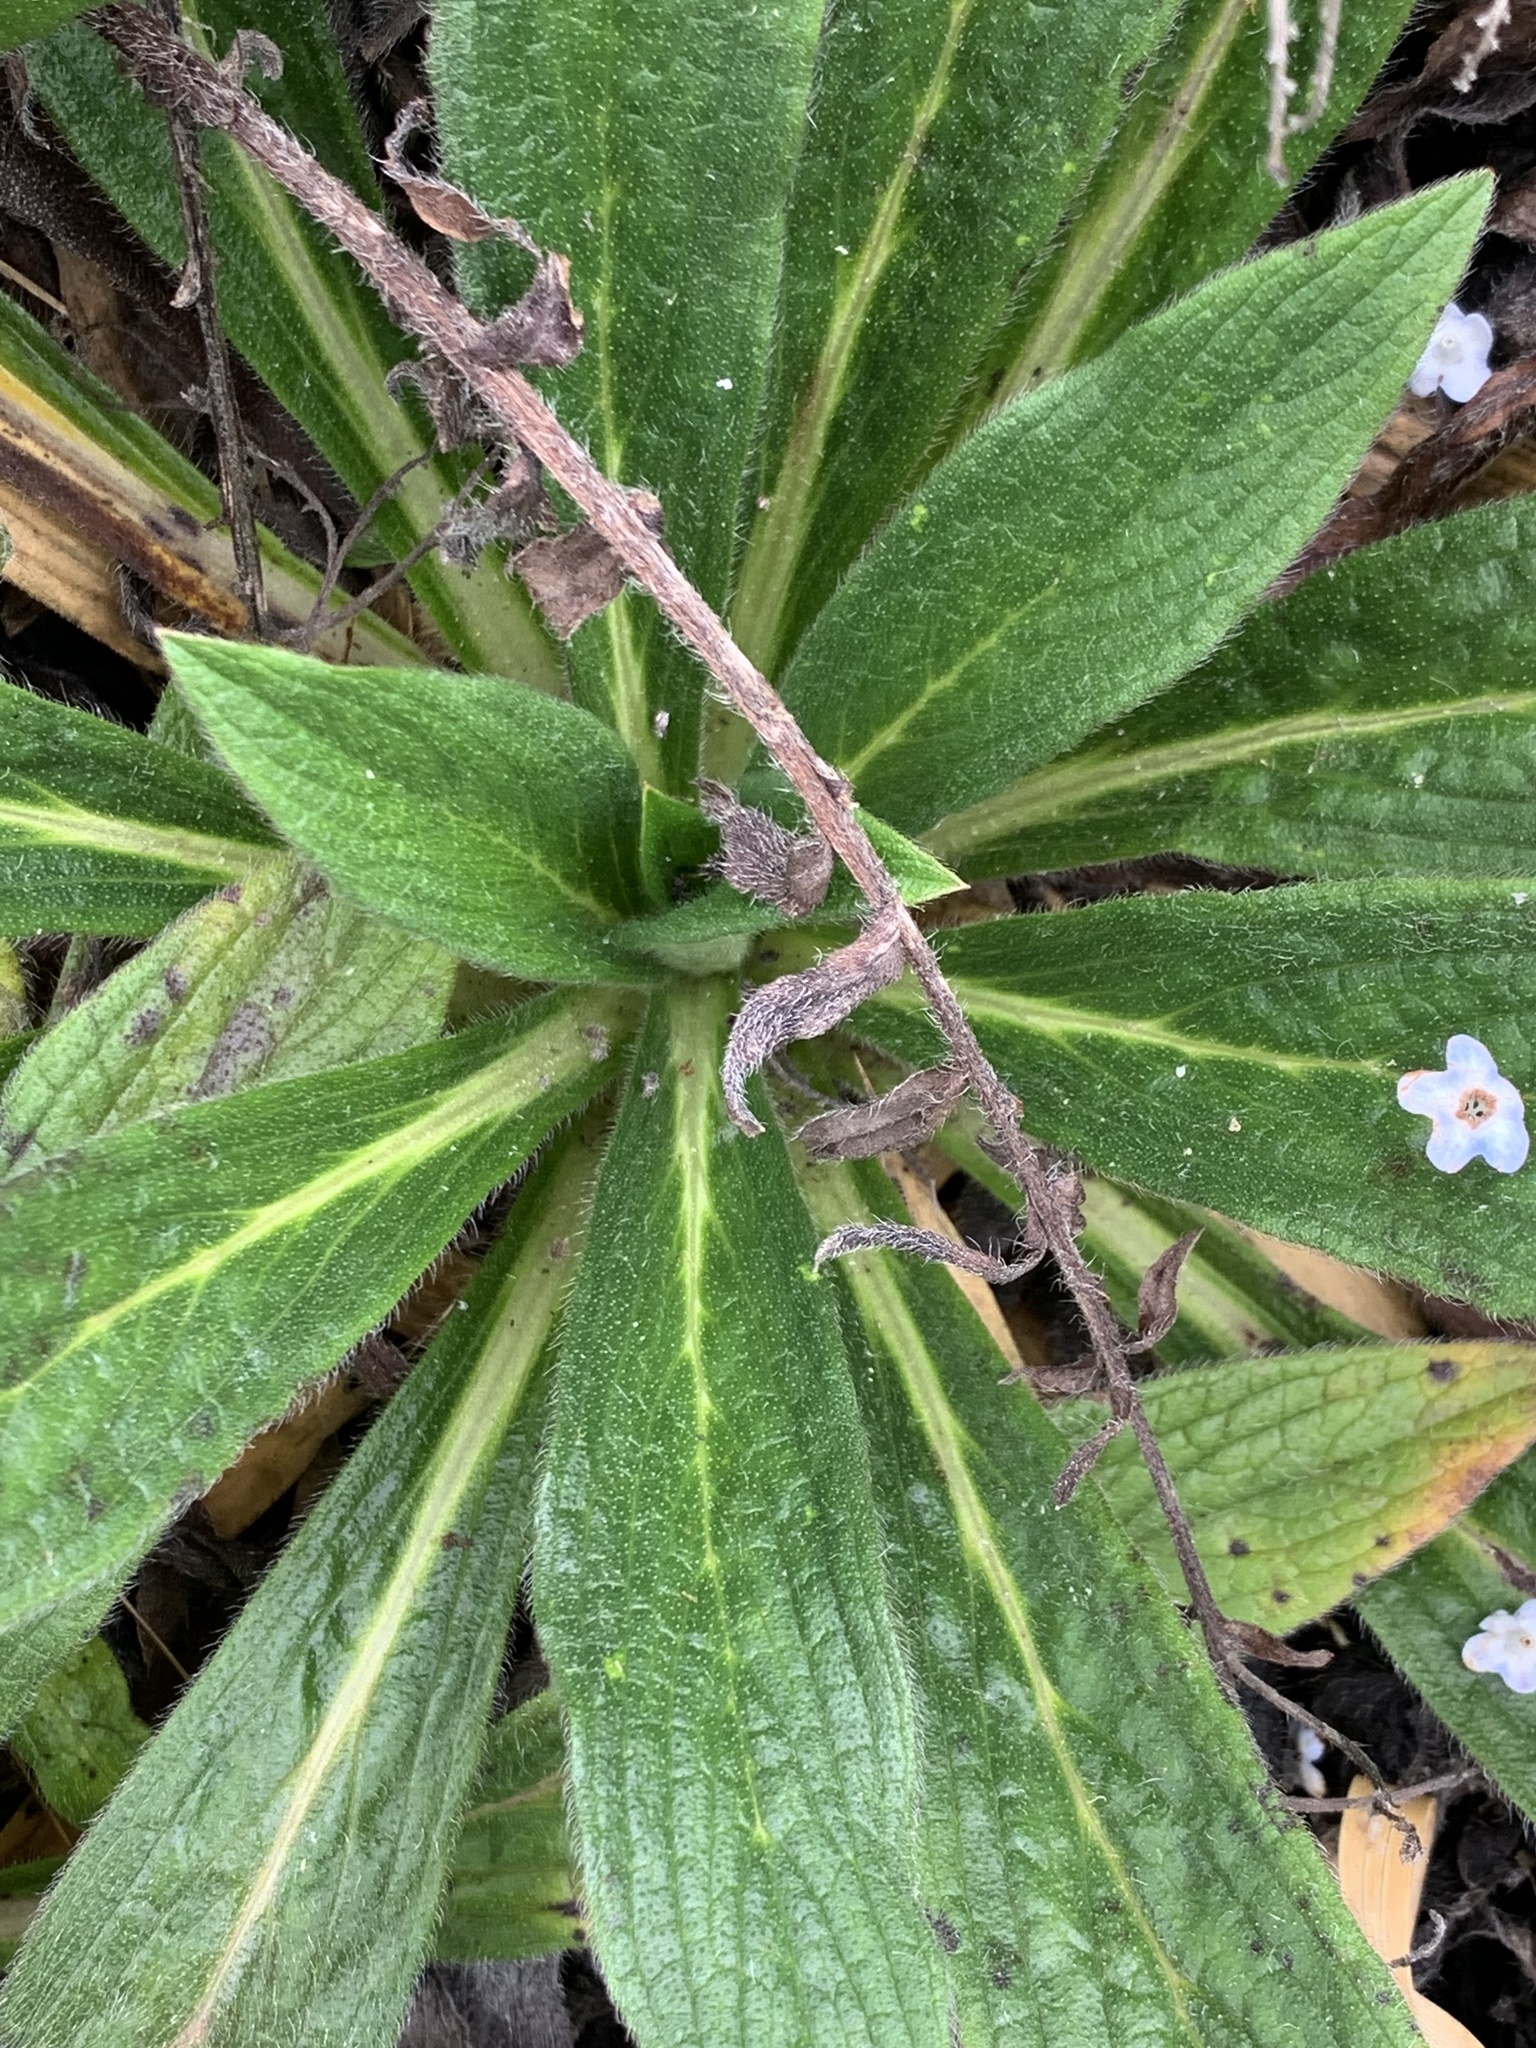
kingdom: Plantae
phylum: Tracheophyta
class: Magnoliopsida
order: Boraginales
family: Boraginaceae
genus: Moritzia
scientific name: Moritzia lindenii
